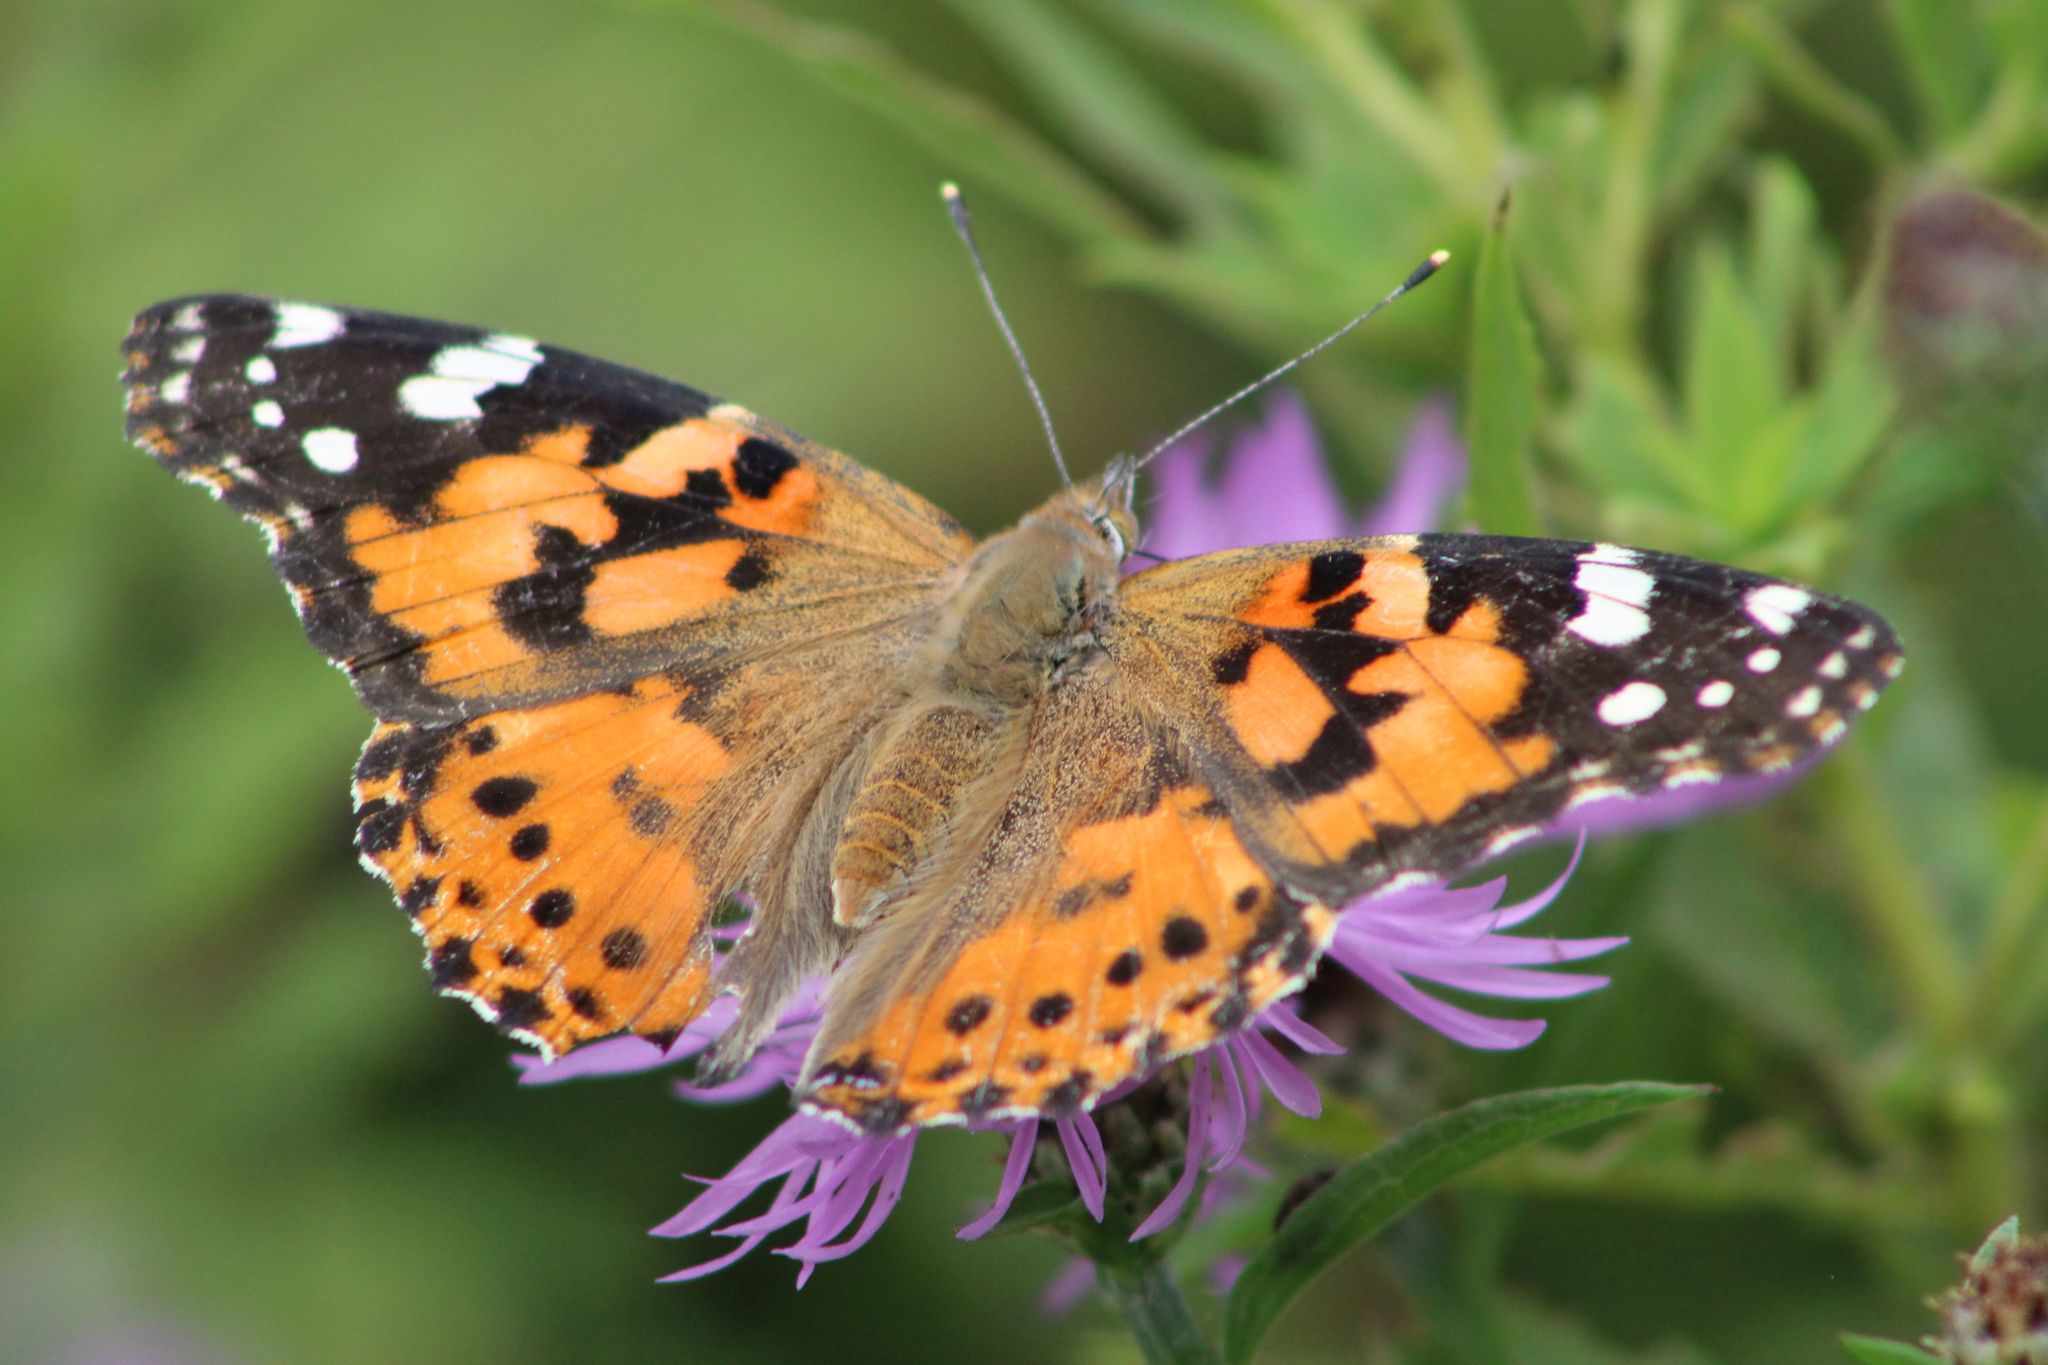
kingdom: Animalia
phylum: Arthropoda
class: Insecta
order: Lepidoptera
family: Nymphalidae
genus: Vanessa
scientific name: Vanessa cardui
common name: Painted lady
